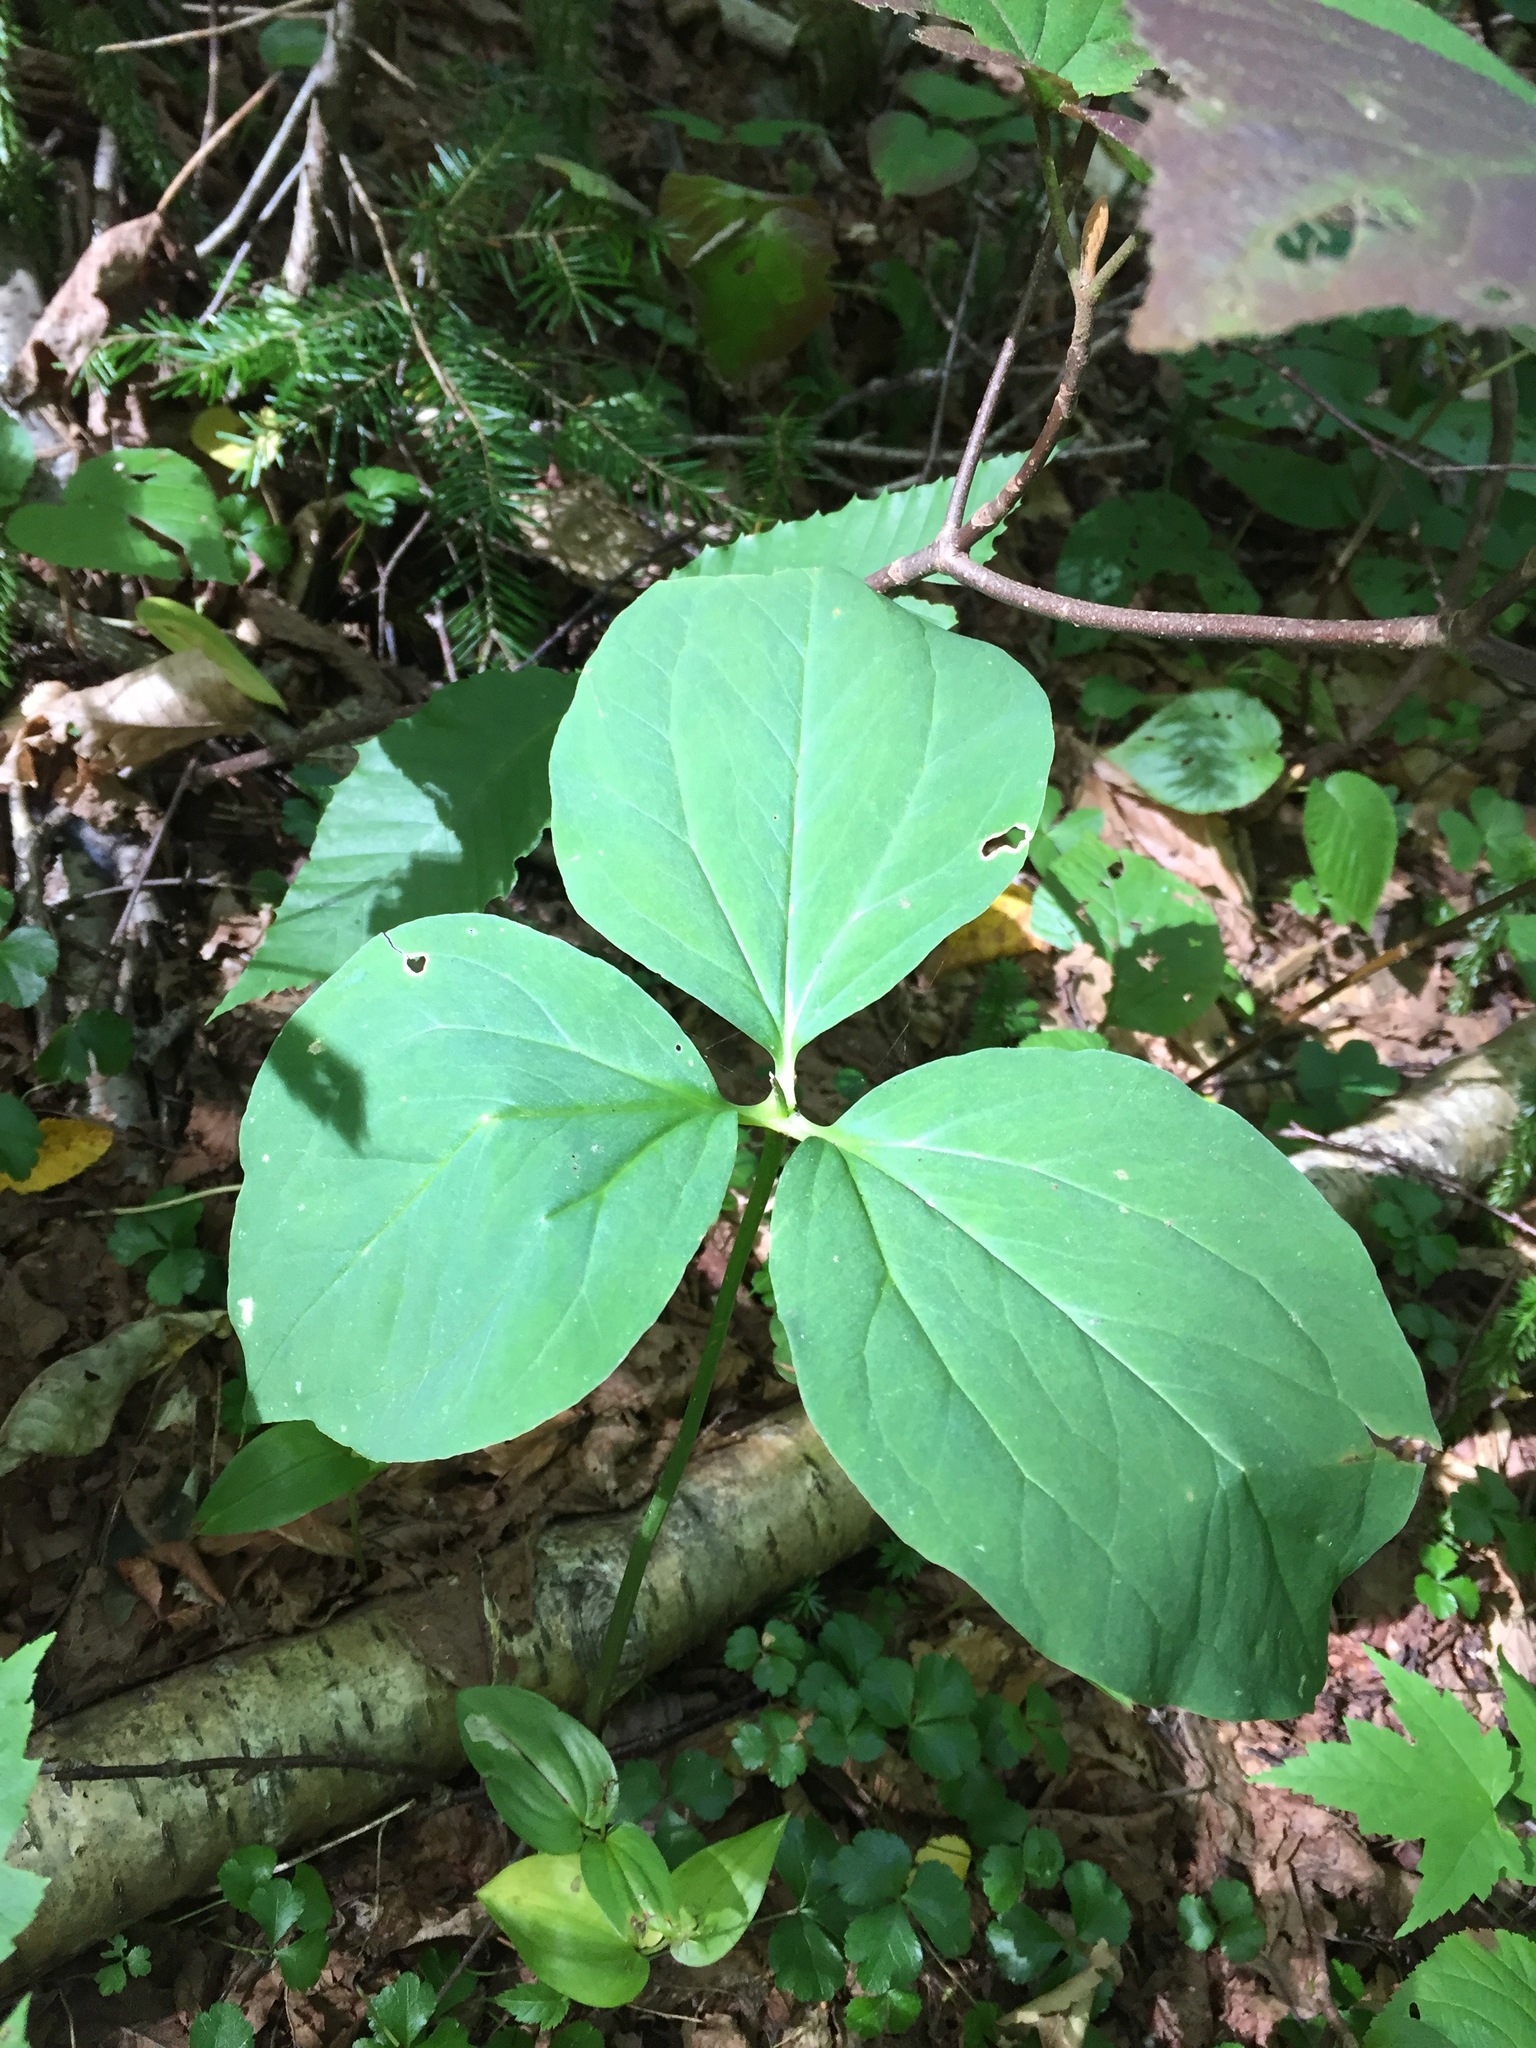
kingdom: Plantae
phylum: Tracheophyta
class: Liliopsida
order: Liliales
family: Melanthiaceae
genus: Trillium
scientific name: Trillium undulatum
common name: Paint trillium
